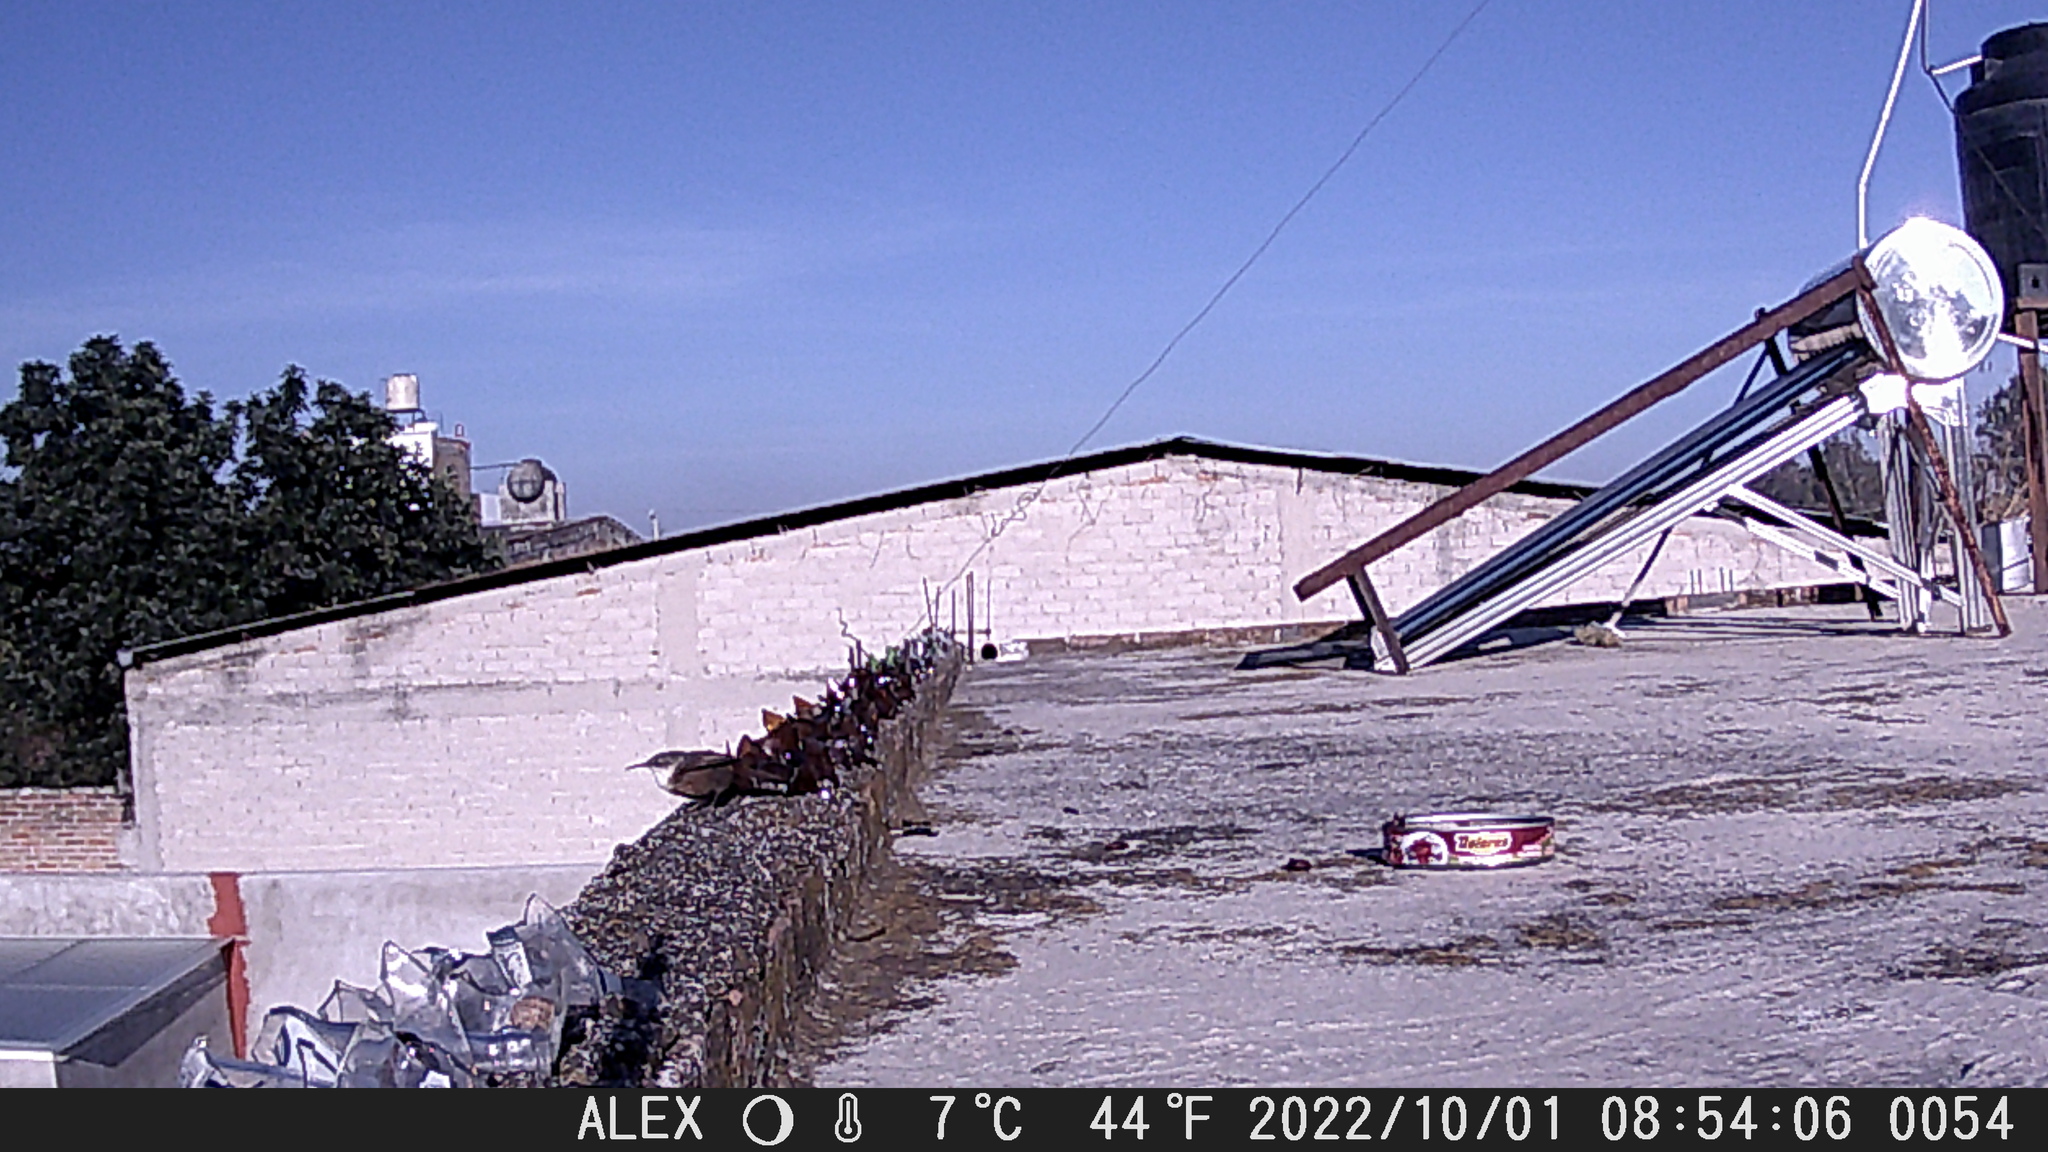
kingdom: Animalia
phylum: Chordata
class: Aves
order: Passeriformes
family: Troglodytidae
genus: Catherpes
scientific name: Catherpes mexicanus
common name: Canyon wren
